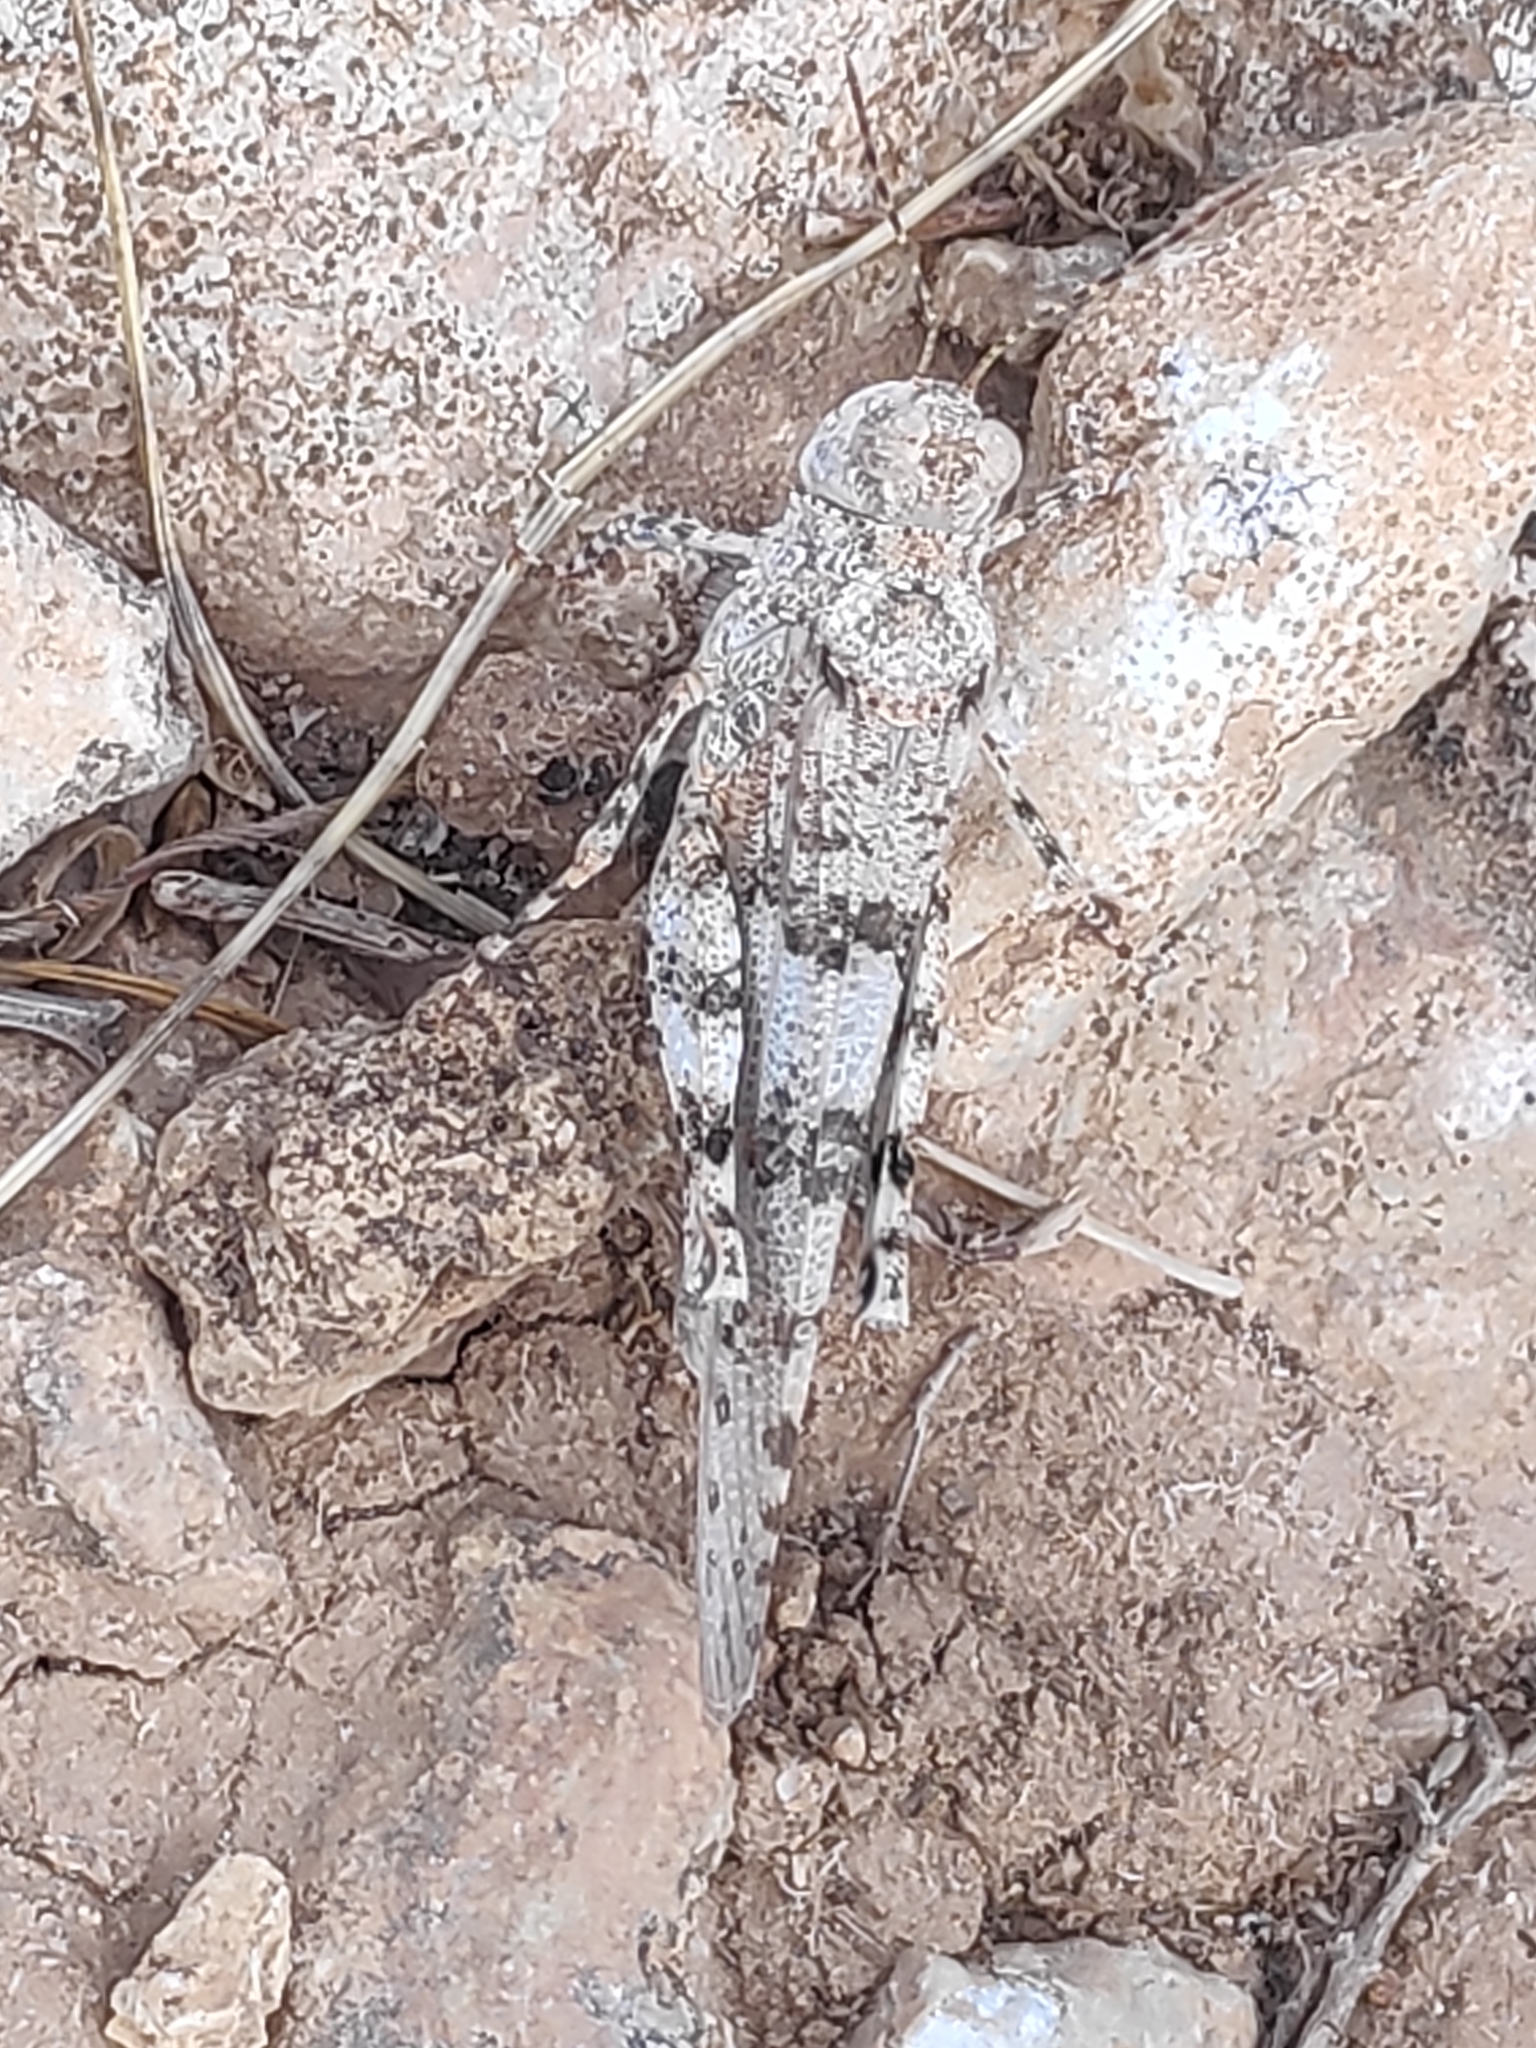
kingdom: Animalia
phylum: Arthropoda
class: Insecta
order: Orthoptera
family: Acrididae
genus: Sphingonotus
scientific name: Sphingonotus caerulans
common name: Blue-winged locust
